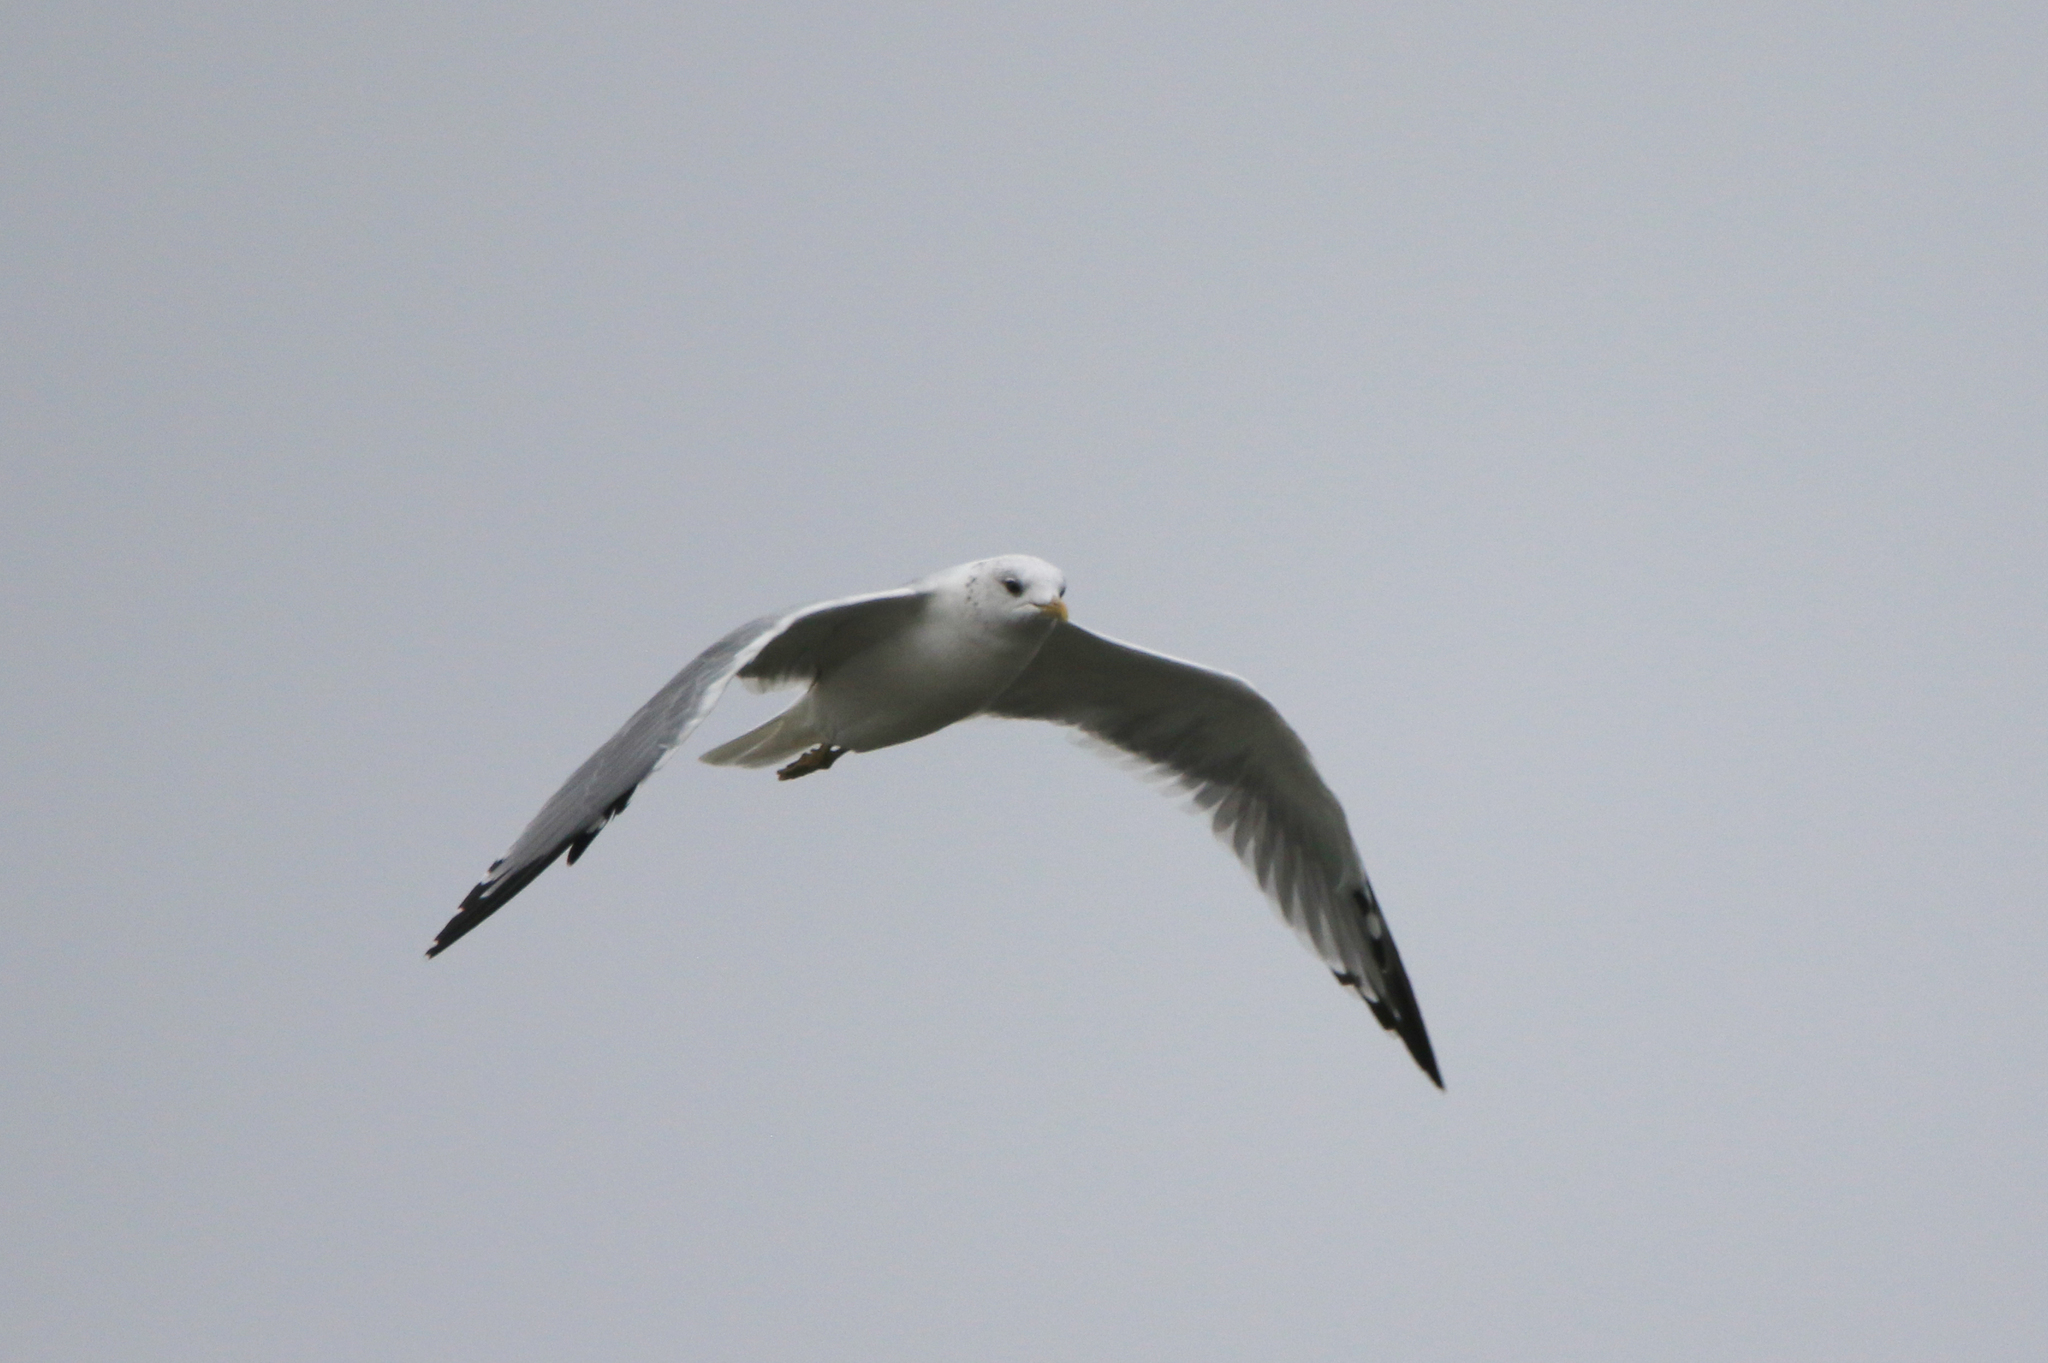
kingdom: Animalia
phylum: Chordata
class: Aves
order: Charadriiformes
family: Laridae
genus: Larus
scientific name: Larus canus
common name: Mew gull
